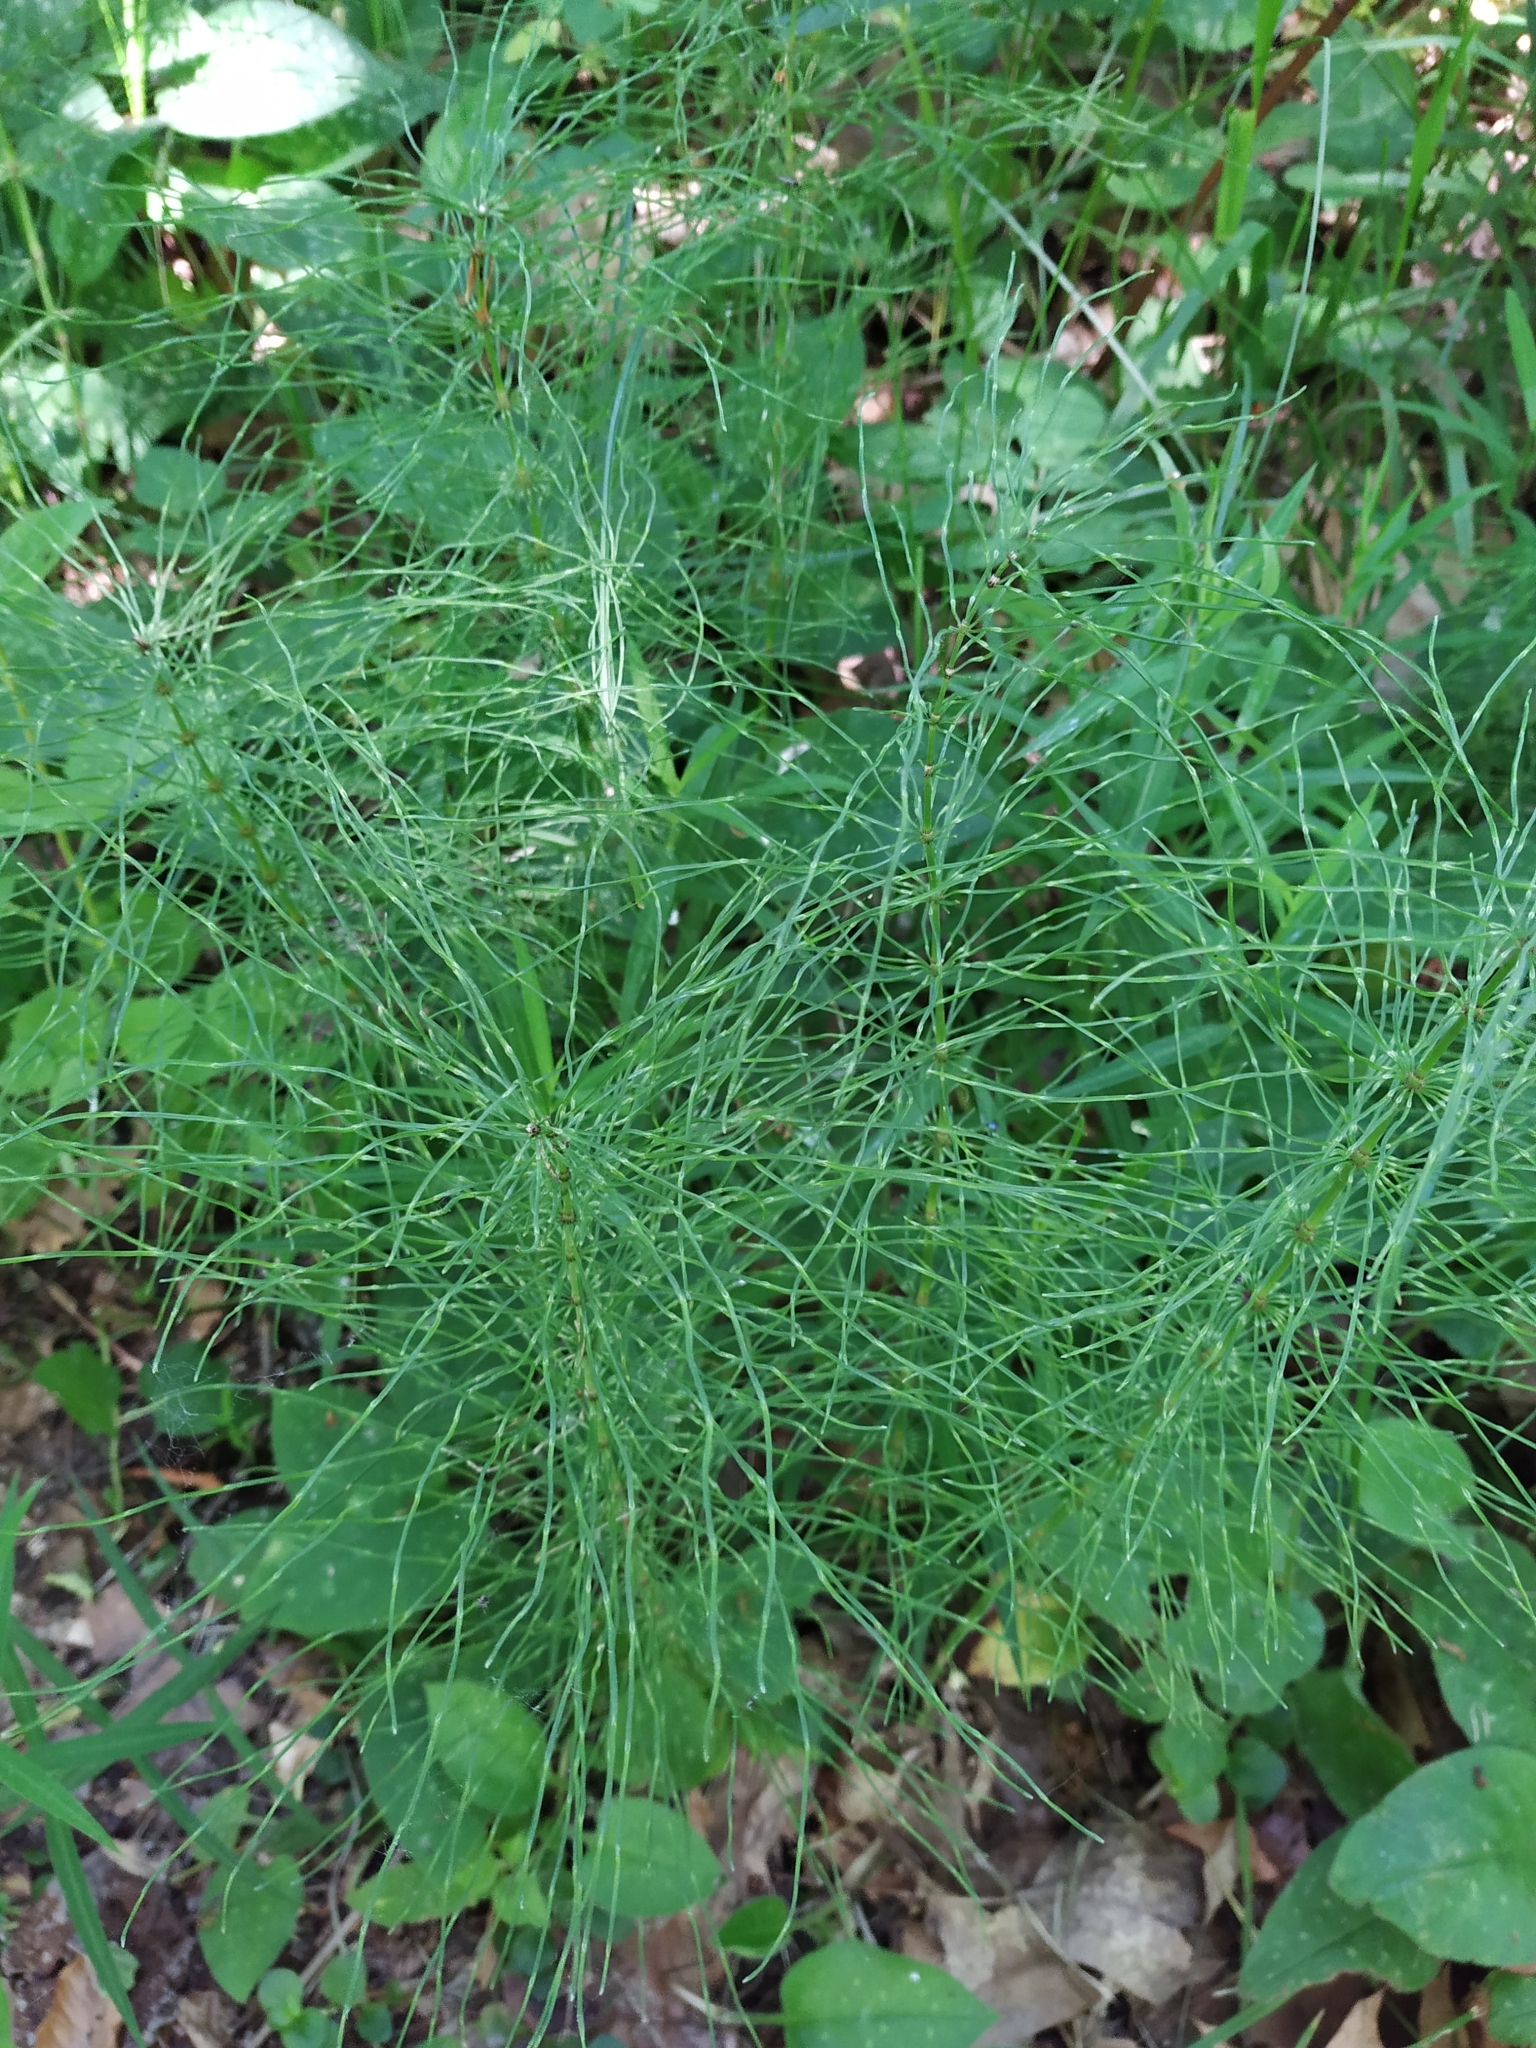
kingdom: Plantae
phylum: Tracheophyta
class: Polypodiopsida
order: Equisetales
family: Equisetaceae
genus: Equisetum
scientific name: Equisetum pratense
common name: Meadow horsetail
